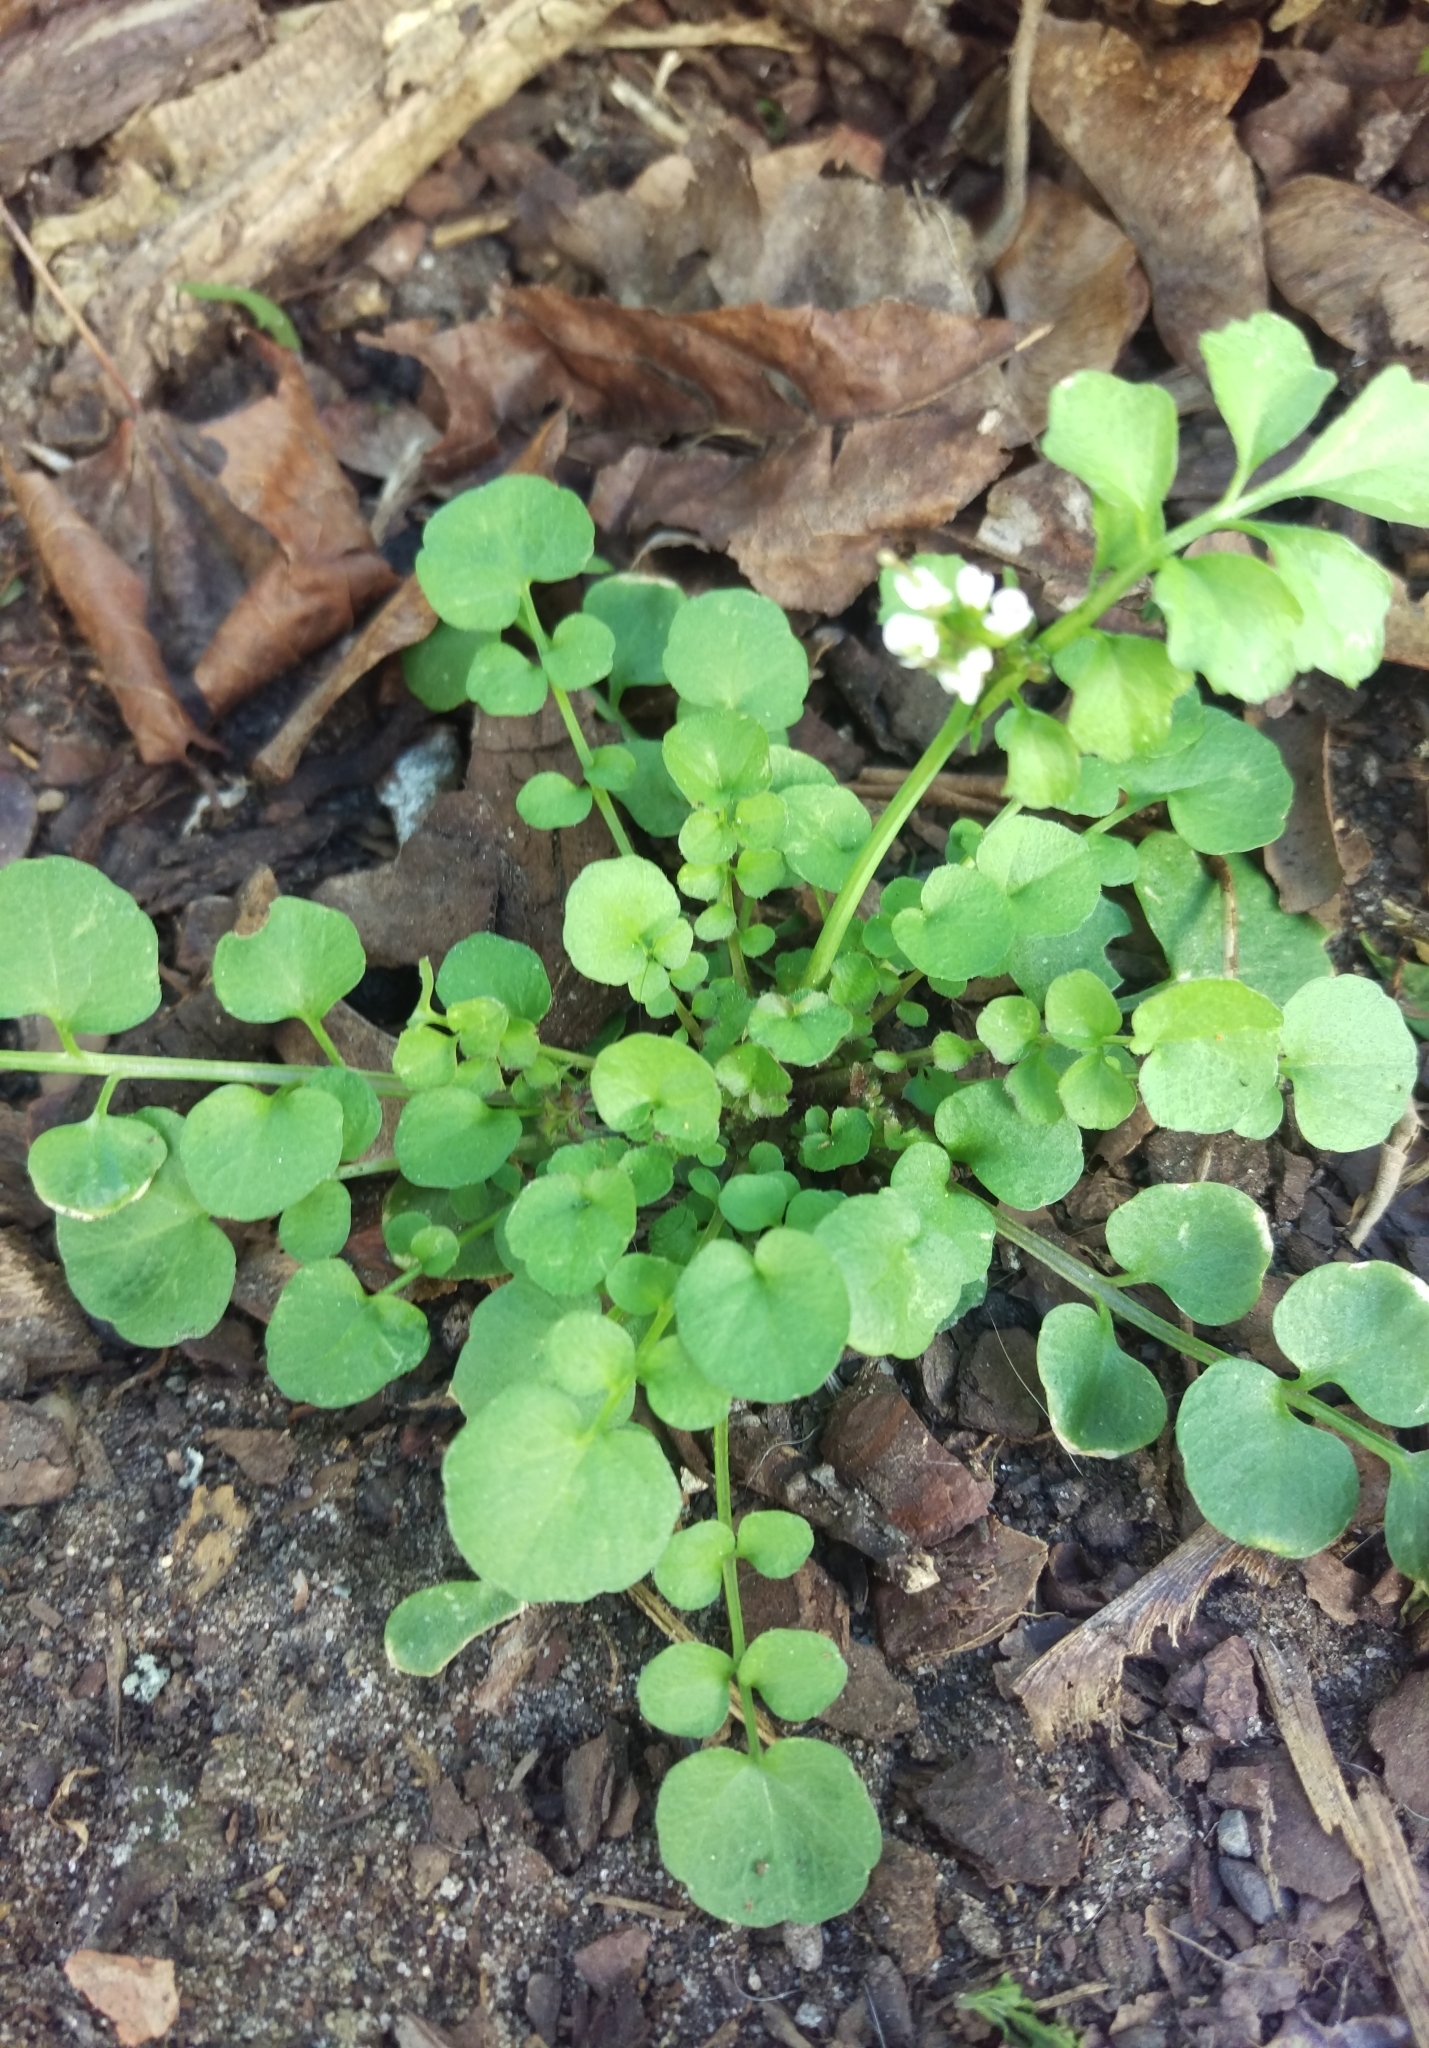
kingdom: Plantae
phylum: Tracheophyta
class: Magnoliopsida
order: Brassicales
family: Brassicaceae
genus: Cardamine
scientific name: Cardamine hirsuta
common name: Hairy bittercress
